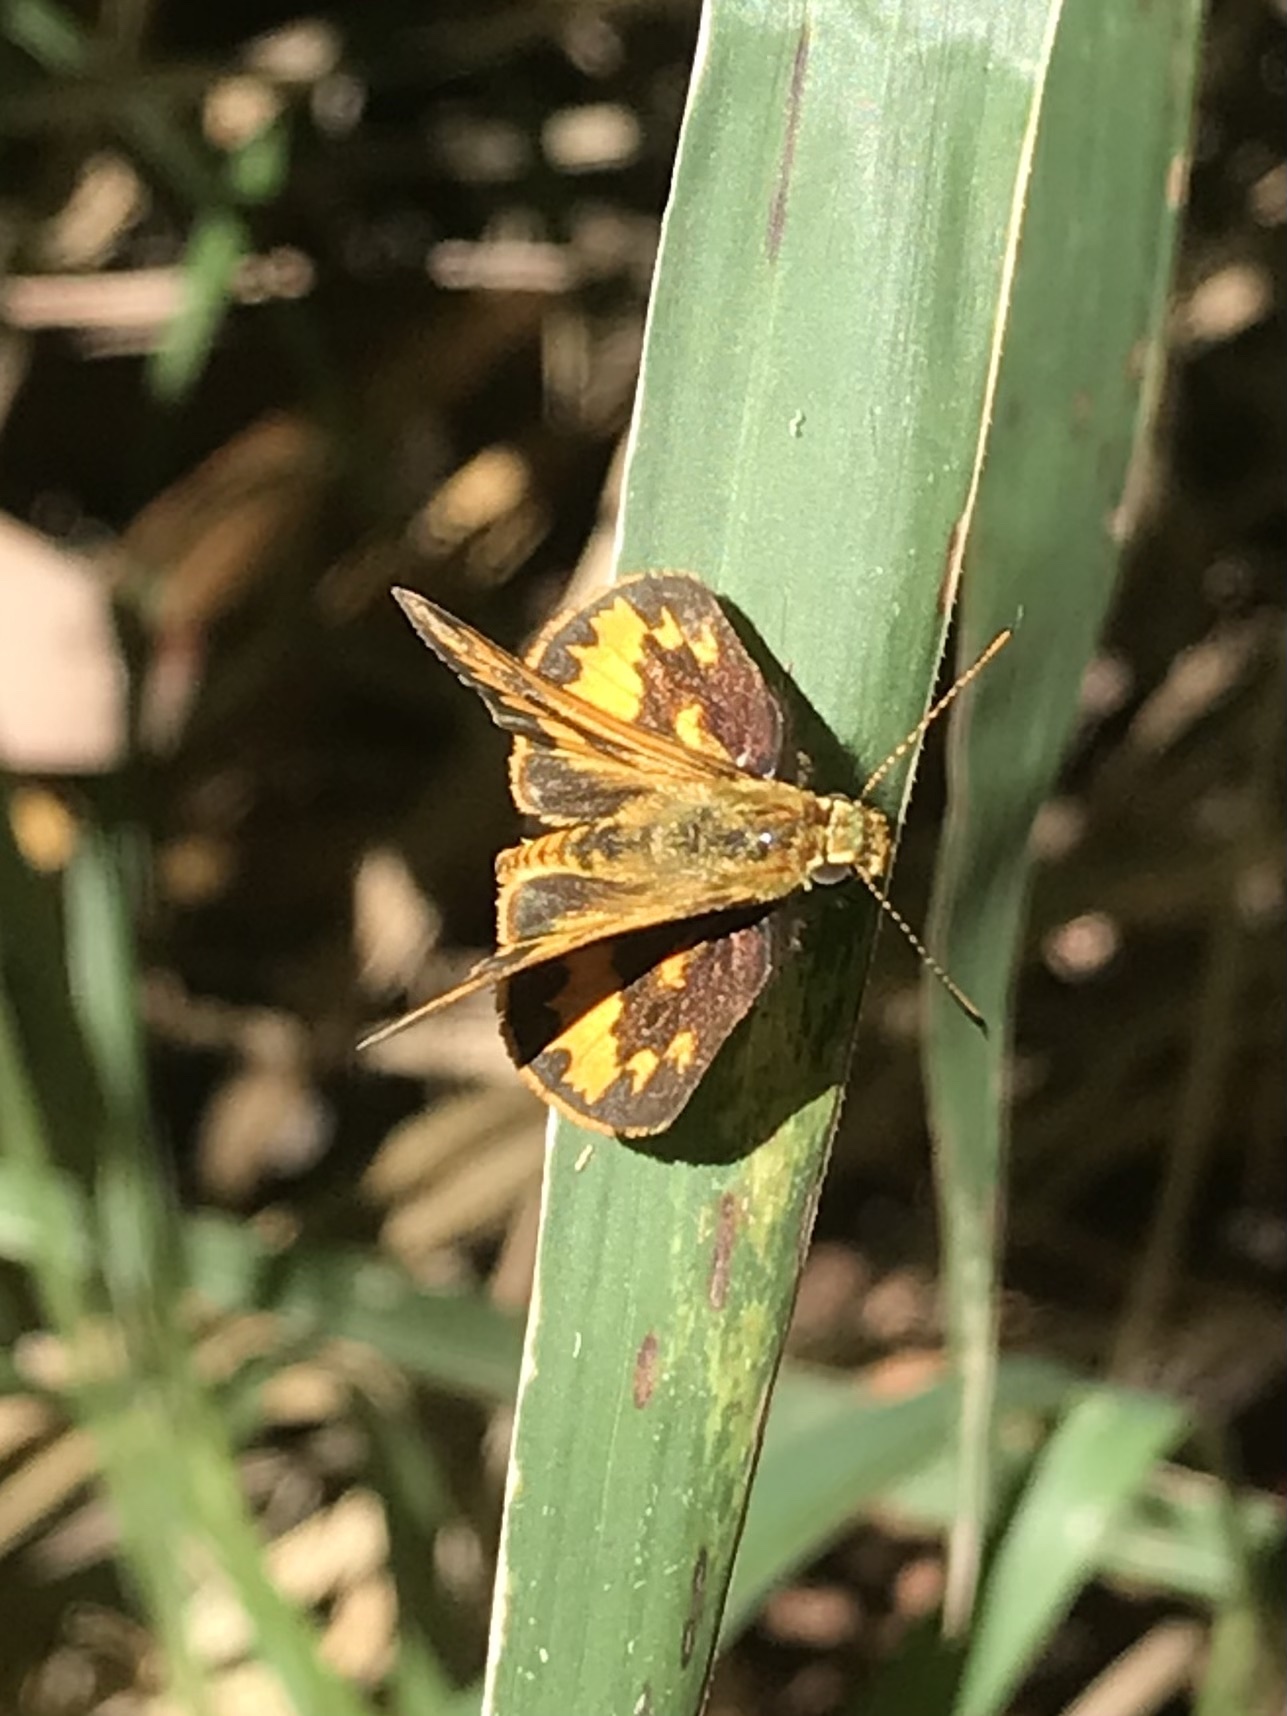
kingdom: Animalia
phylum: Arthropoda
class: Insecta
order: Lepidoptera
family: Hesperiidae
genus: Suniana
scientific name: Suniana sunias
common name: Wide-brand grass-dart
